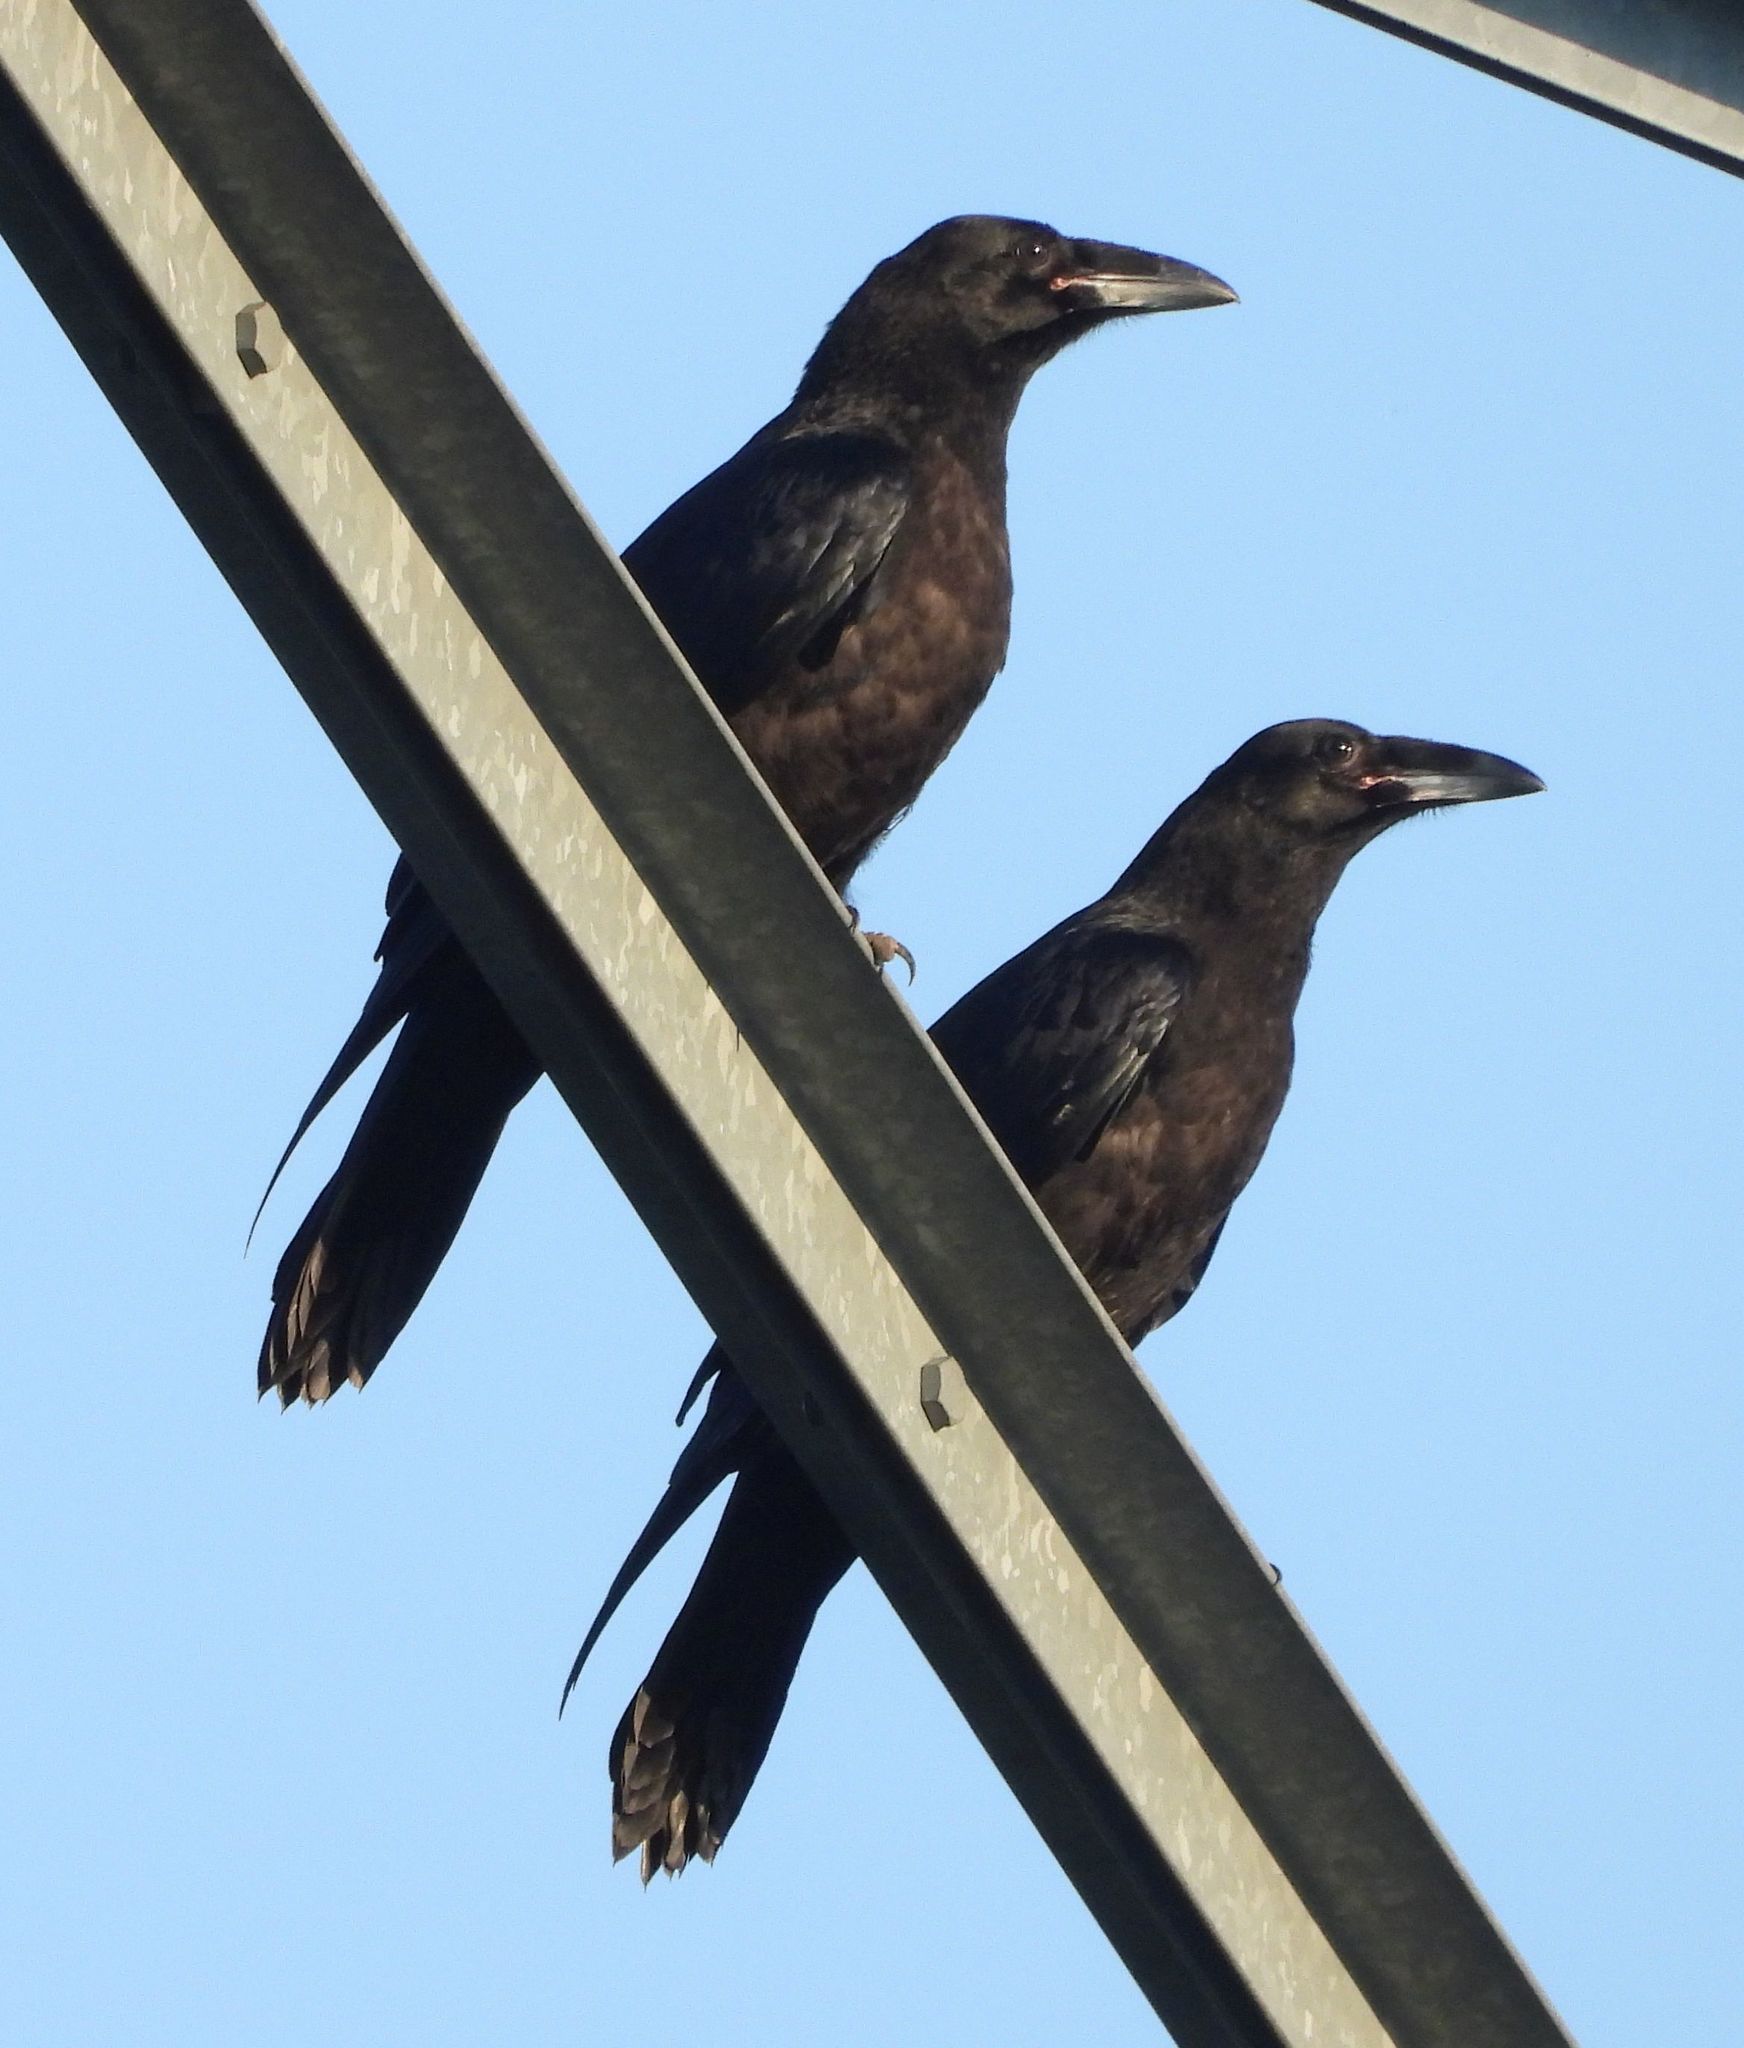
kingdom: Animalia
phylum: Chordata
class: Aves
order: Passeriformes
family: Corvidae
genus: Corvus
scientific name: Corvus corax
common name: Common raven
